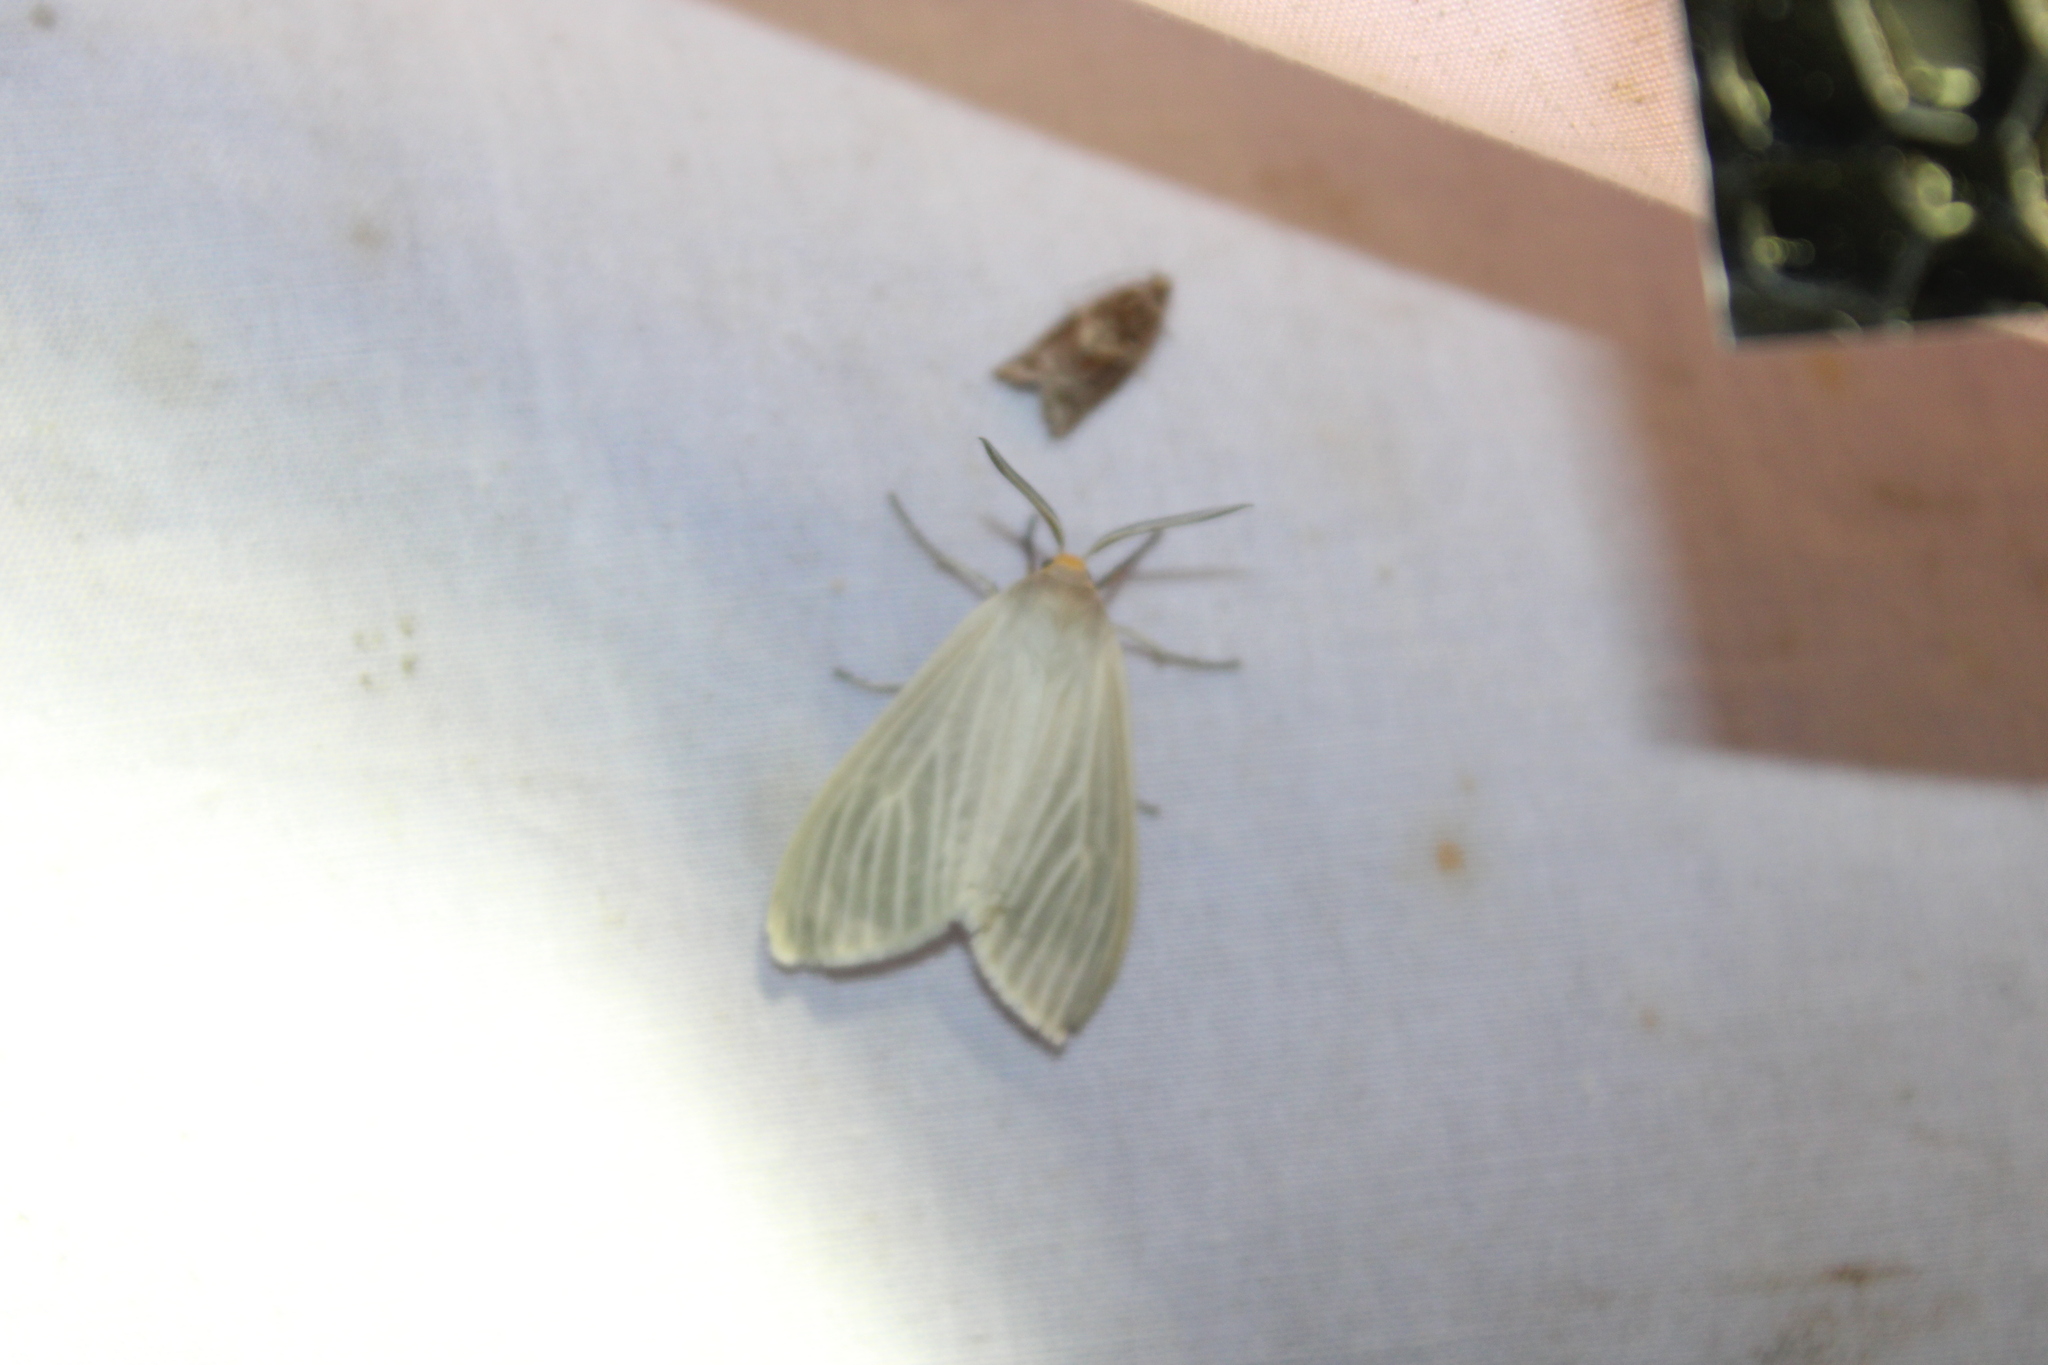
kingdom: Animalia
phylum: Arthropoda
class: Insecta
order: Lepidoptera
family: Erebidae
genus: Cycnia
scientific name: Cycnia oregonensis
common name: Oregon cycnia moth
